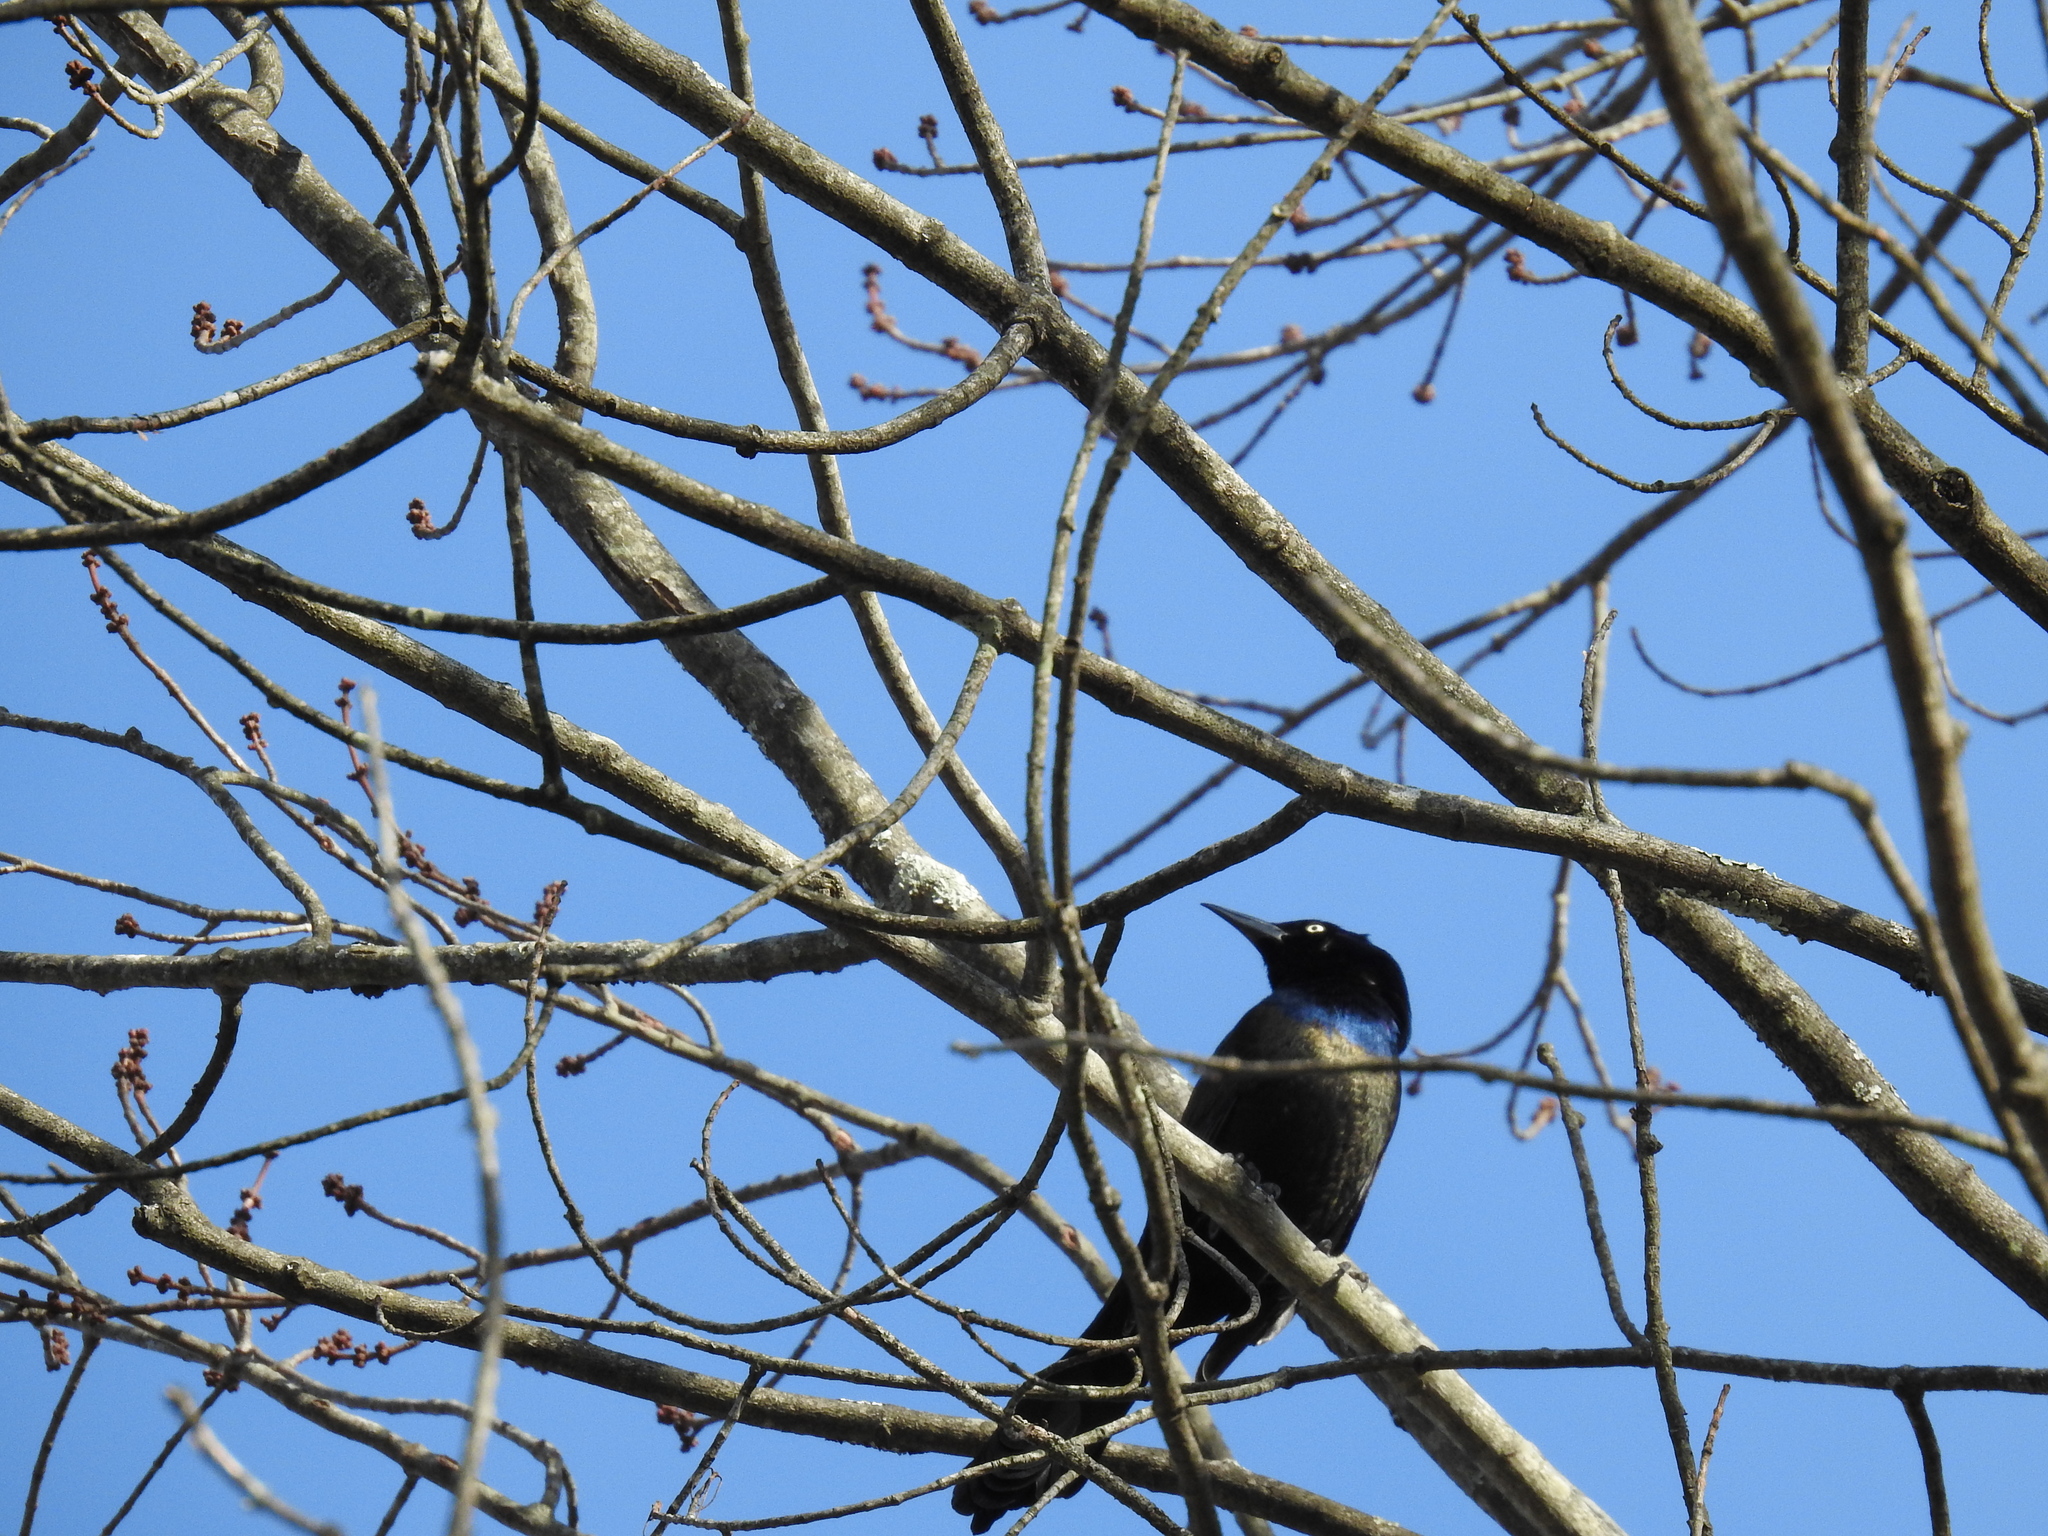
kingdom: Animalia
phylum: Chordata
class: Aves
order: Passeriformes
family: Icteridae
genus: Quiscalus
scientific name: Quiscalus quiscula
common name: Common grackle
